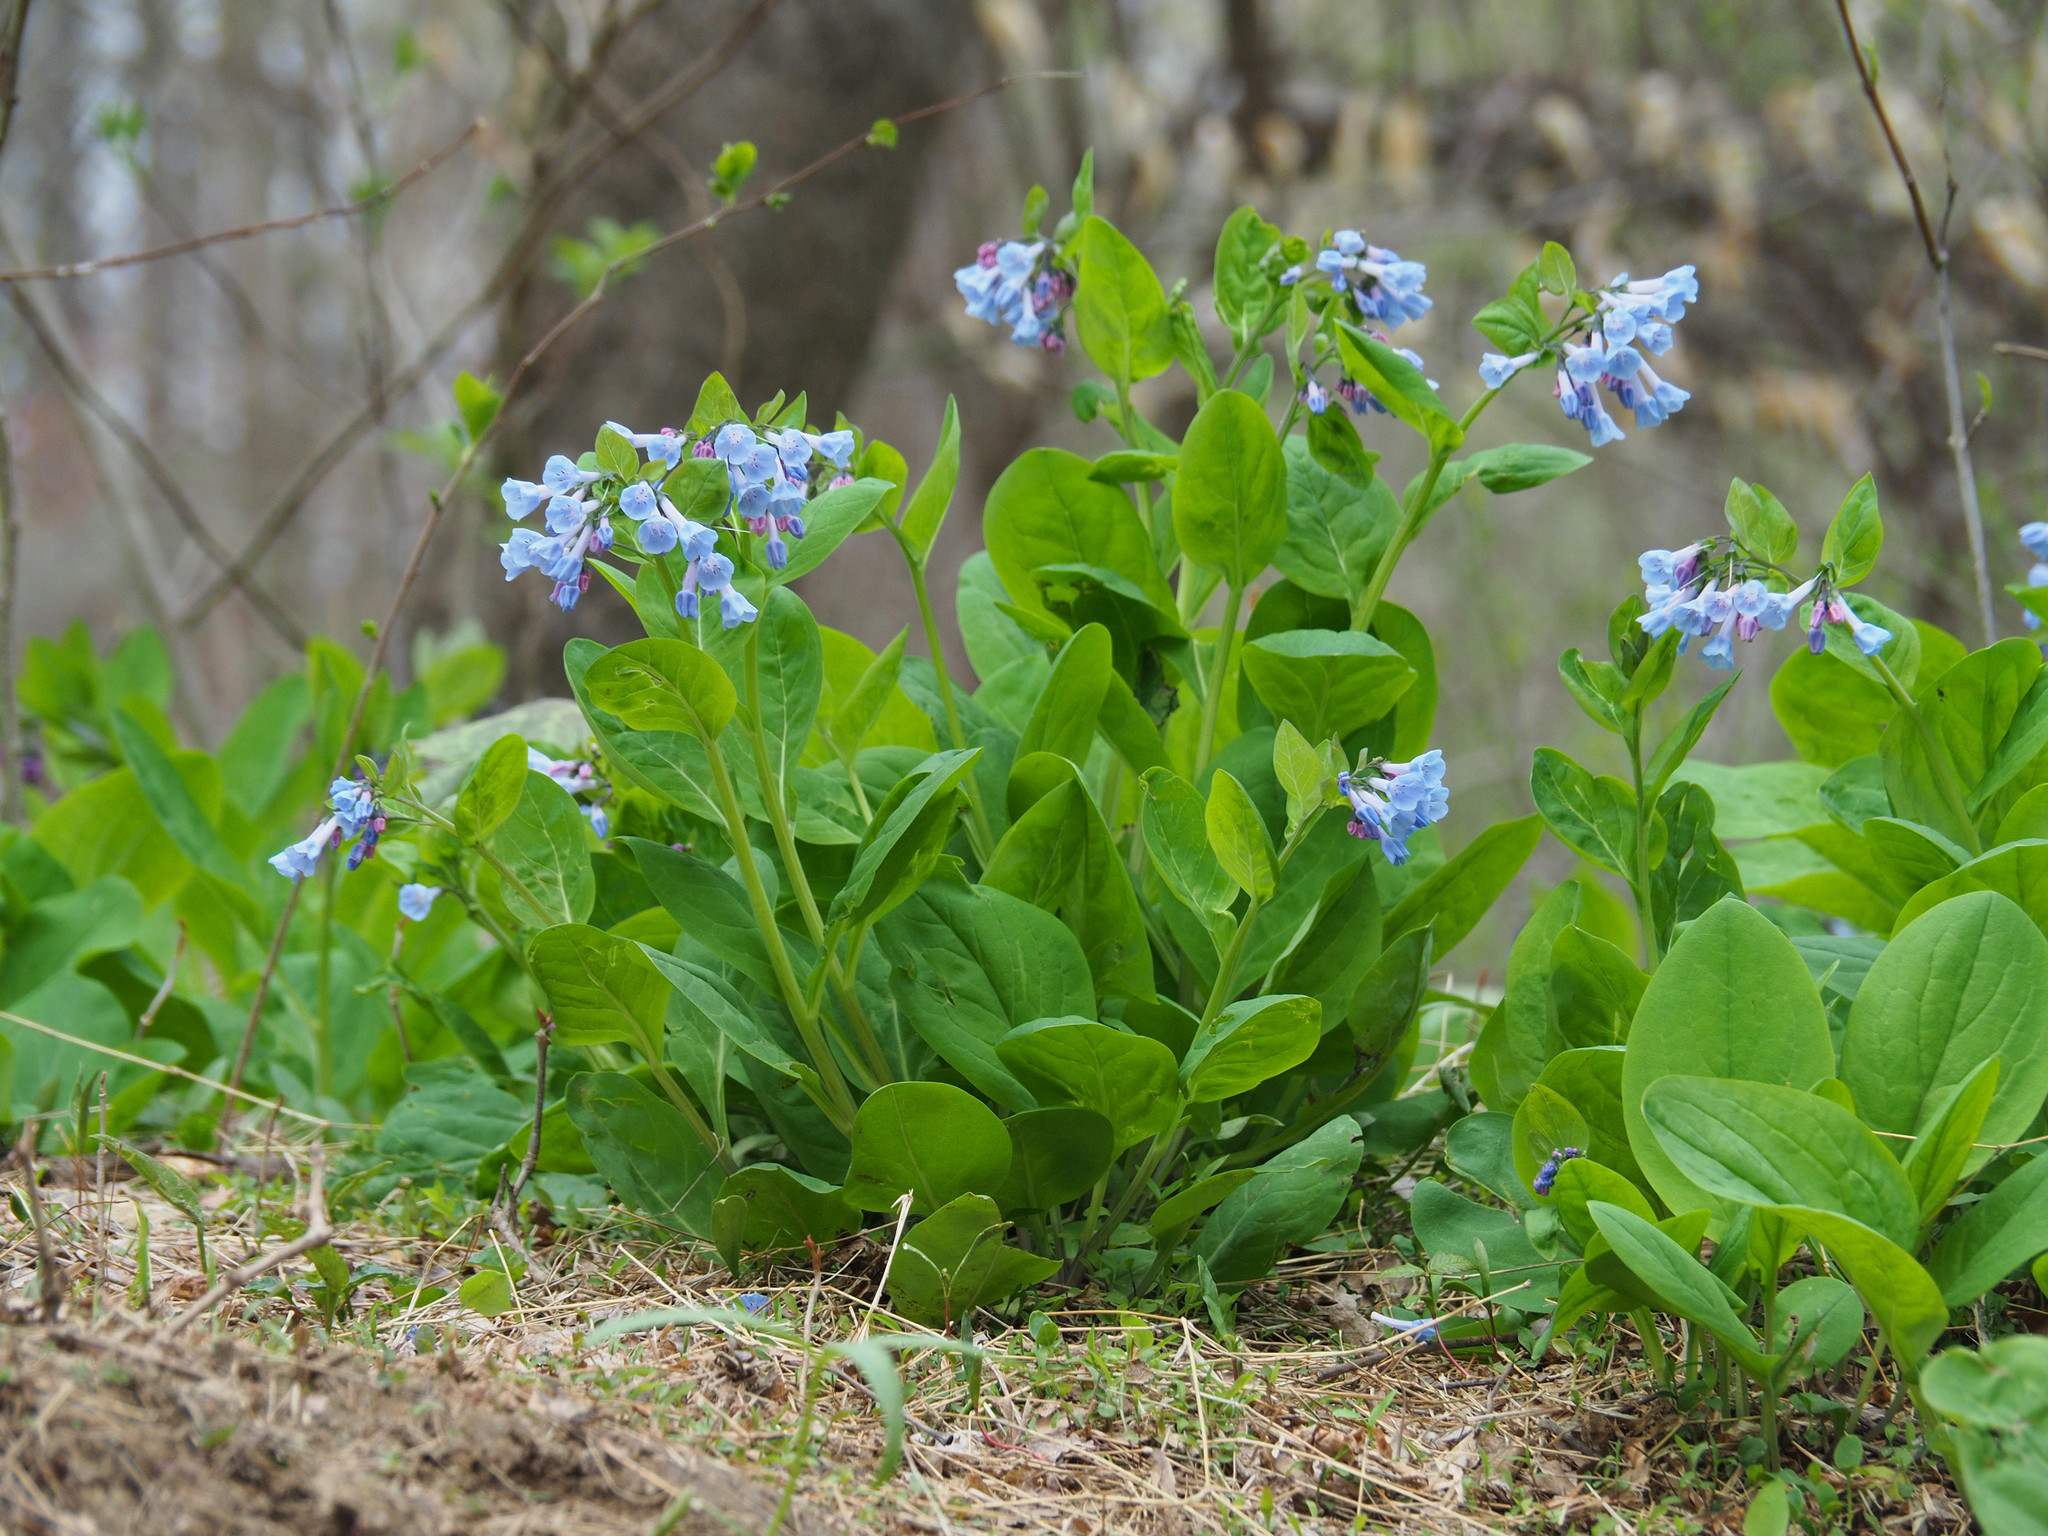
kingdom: Plantae
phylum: Tracheophyta
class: Magnoliopsida
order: Boraginales
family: Boraginaceae
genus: Mertensia
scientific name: Mertensia virginica
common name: Virginia bluebells
